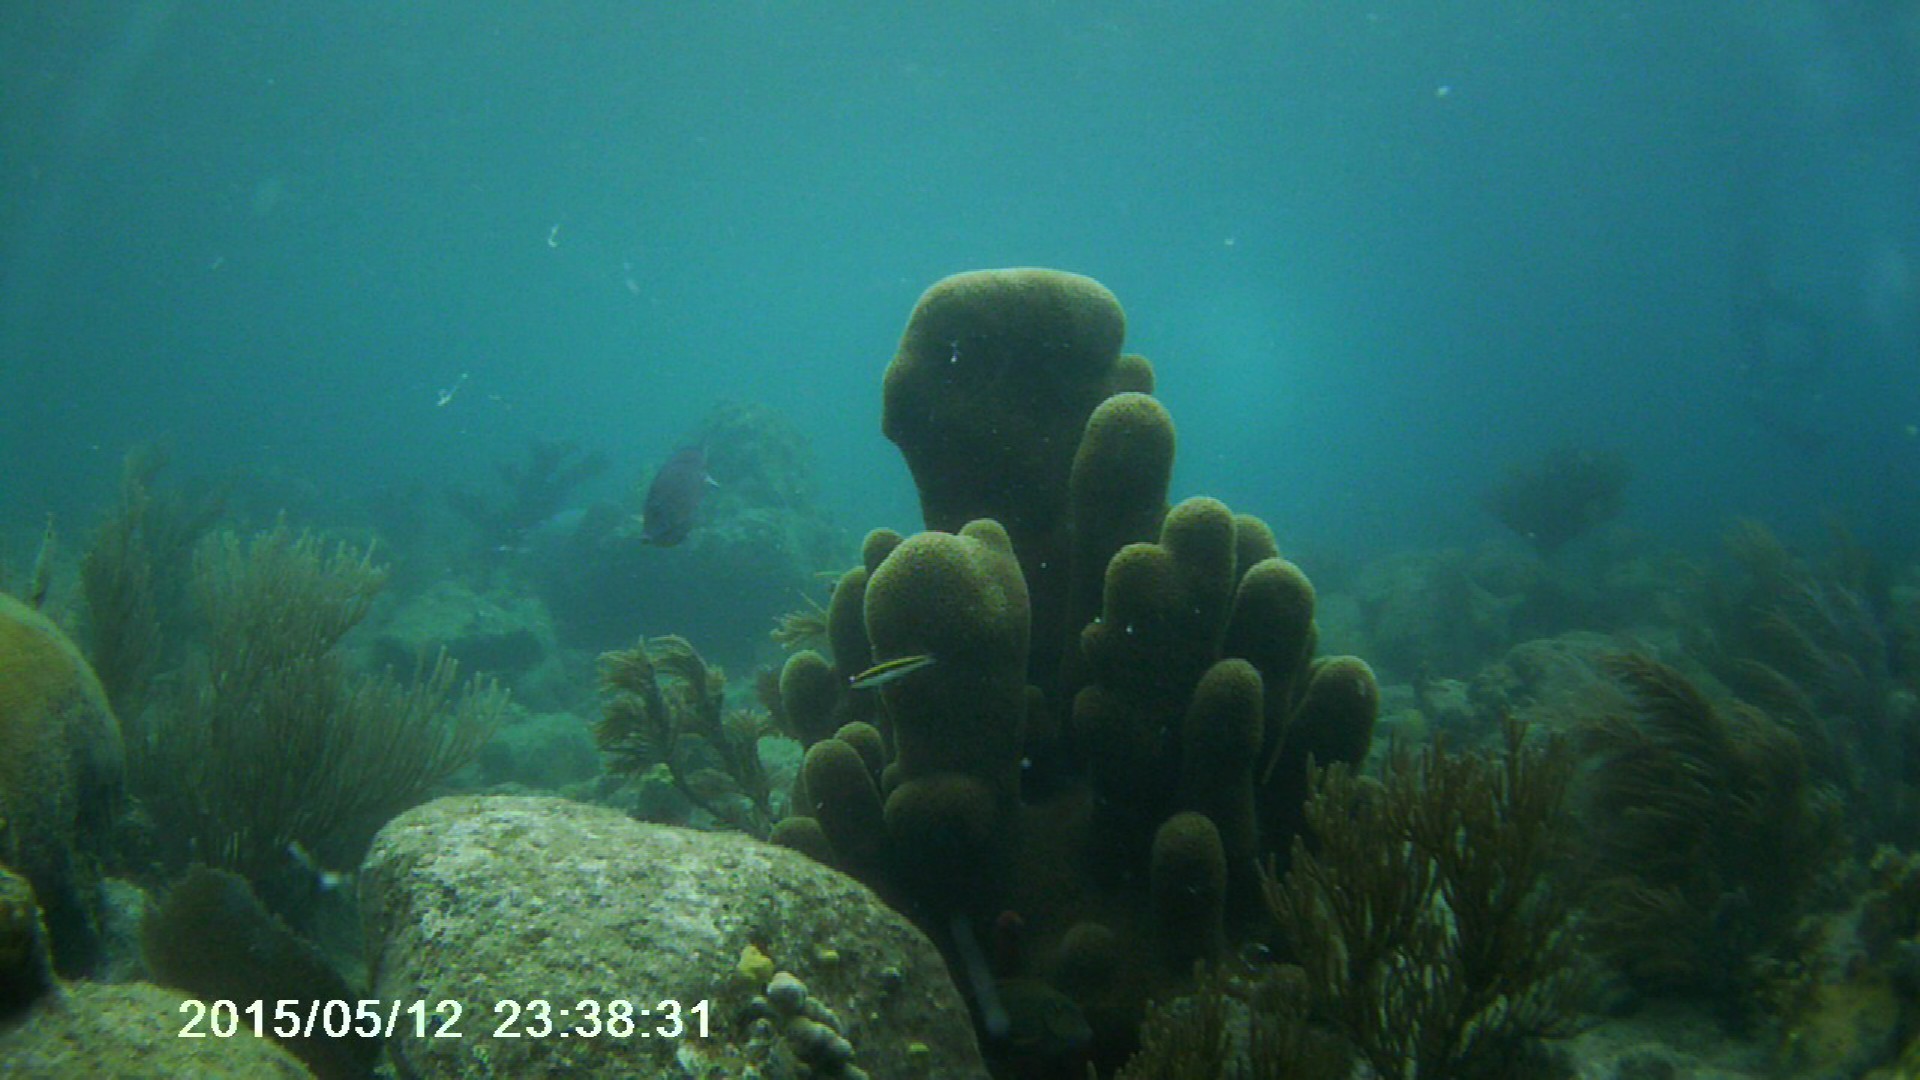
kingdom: Animalia
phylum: Cnidaria
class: Anthozoa
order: Scleractinia
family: Meandrinidae
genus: Dendrogyra
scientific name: Dendrogyra cylindrus
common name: Pillar coral
